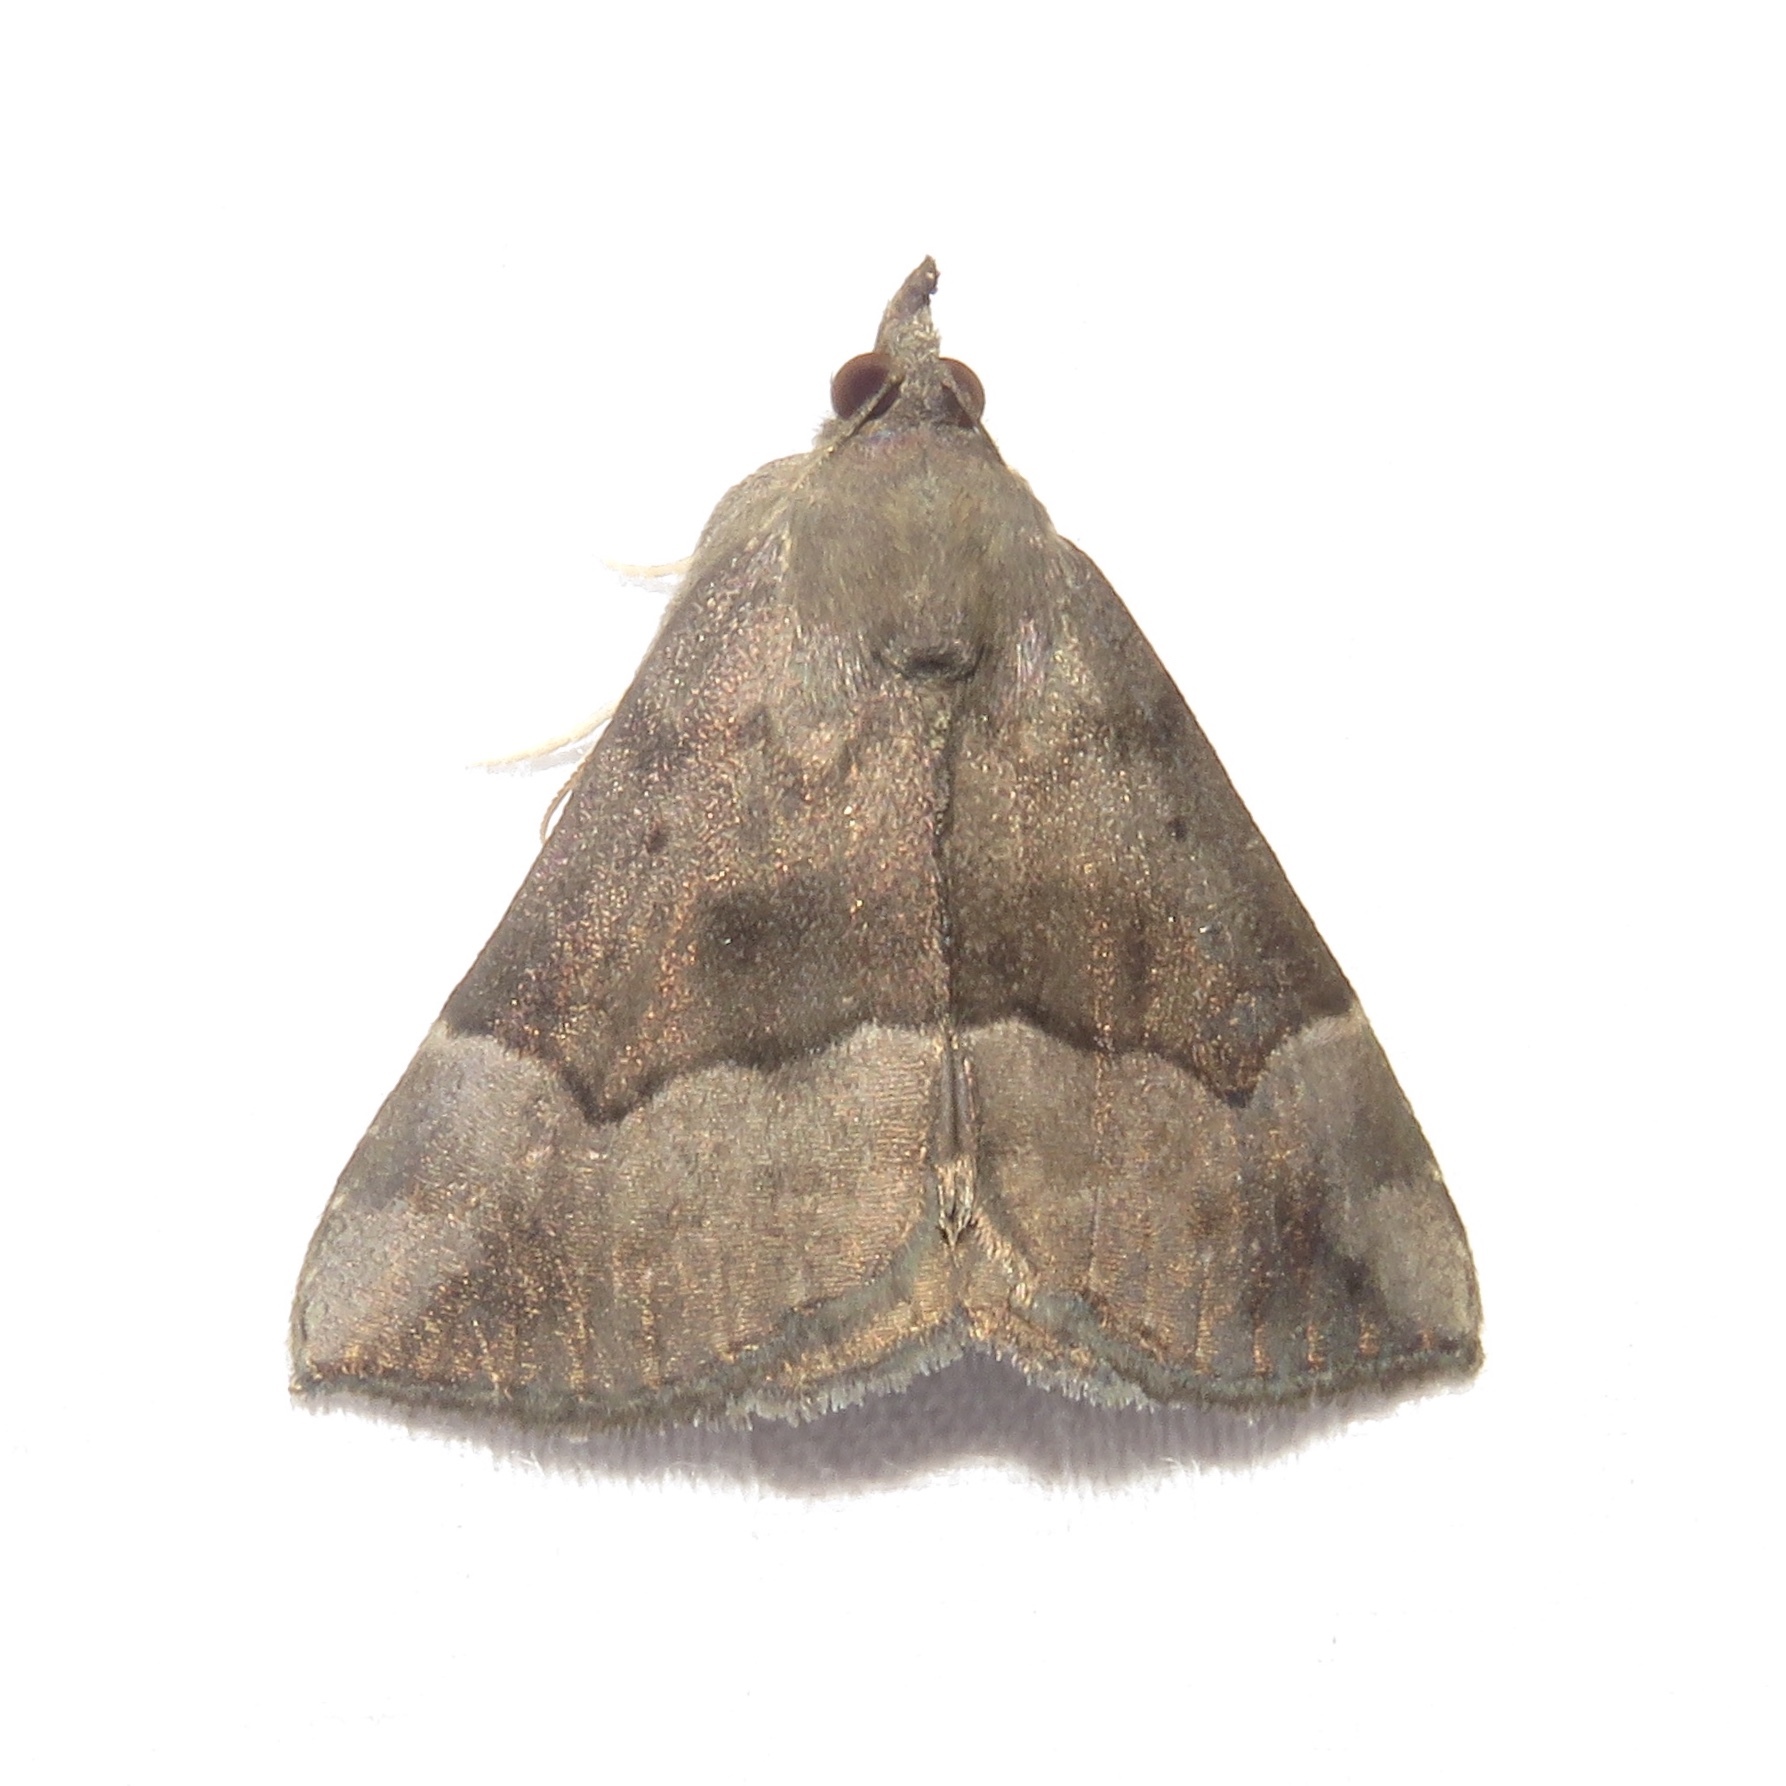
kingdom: Animalia
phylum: Arthropoda
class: Insecta
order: Lepidoptera
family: Erebidae
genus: Hypena
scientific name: Hypena madefactalis
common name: Gray-edged snout
